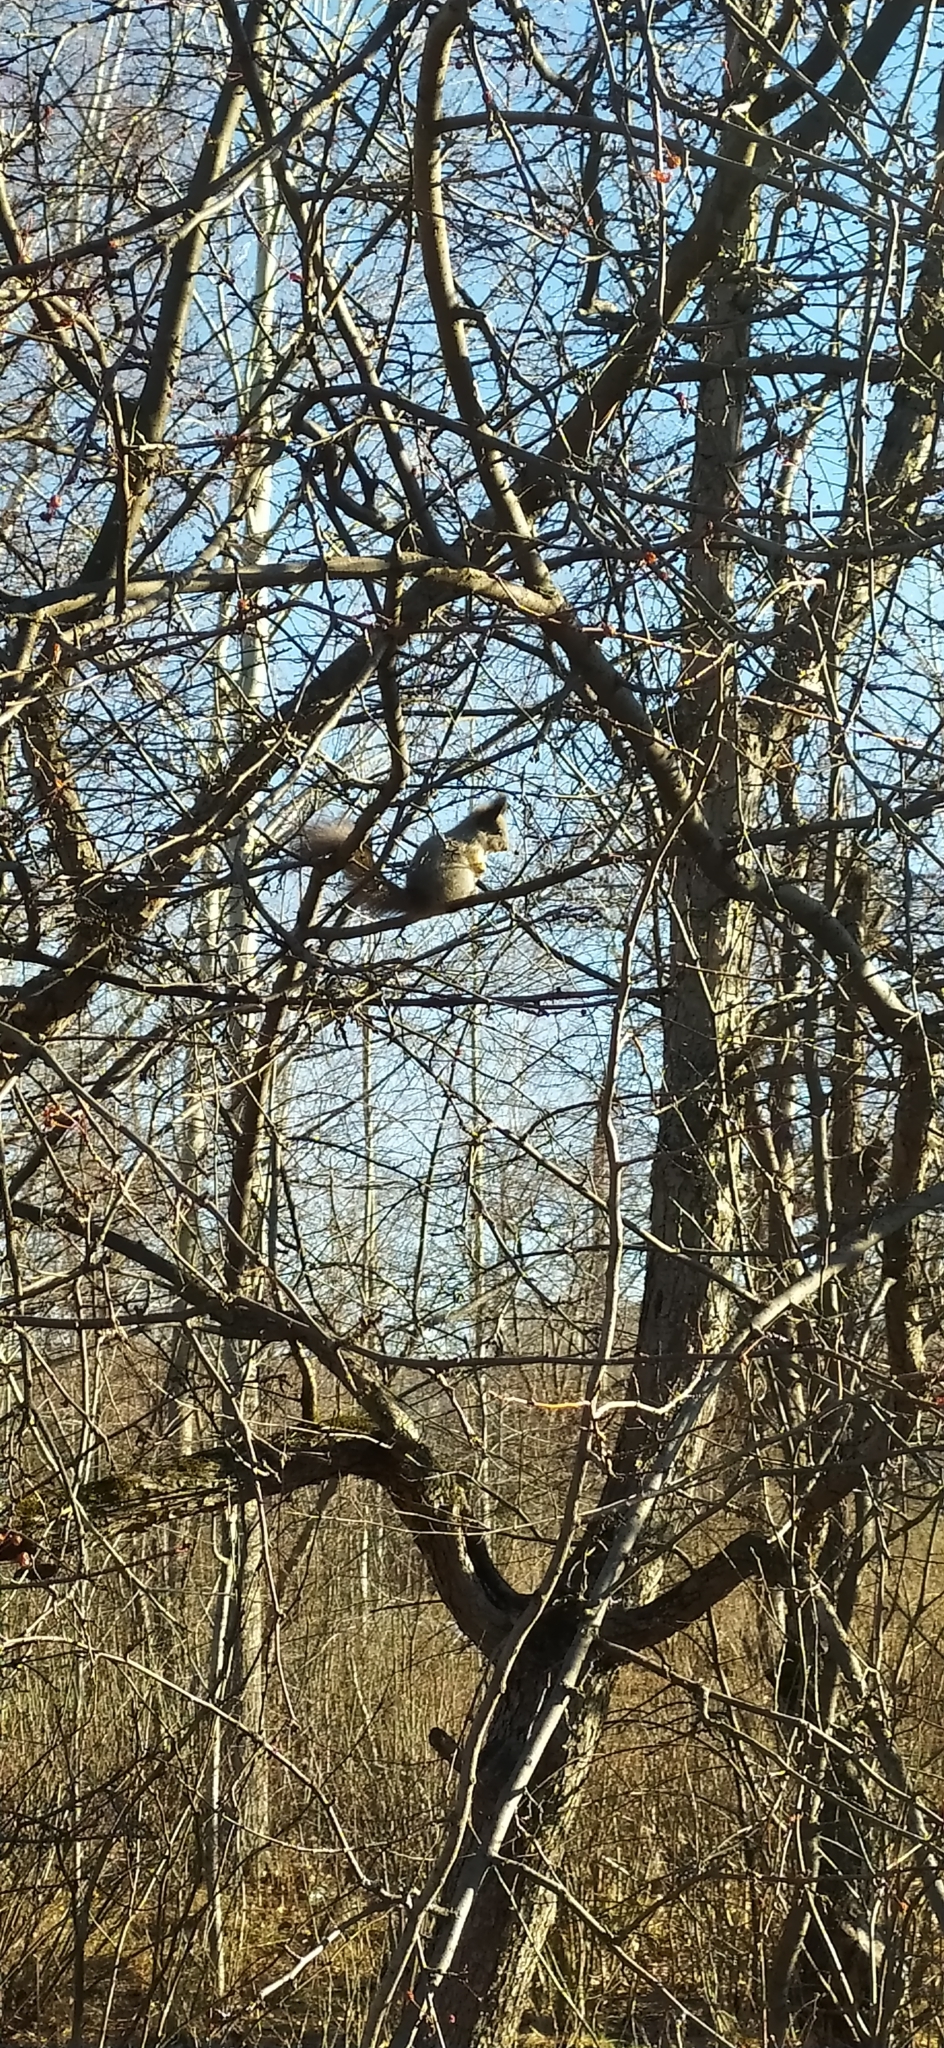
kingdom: Animalia
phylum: Chordata
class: Mammalia
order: Rodentia
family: Sciuridae
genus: Sciurus
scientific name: Sciurus vulgaris
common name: Eurasian red squirrel
